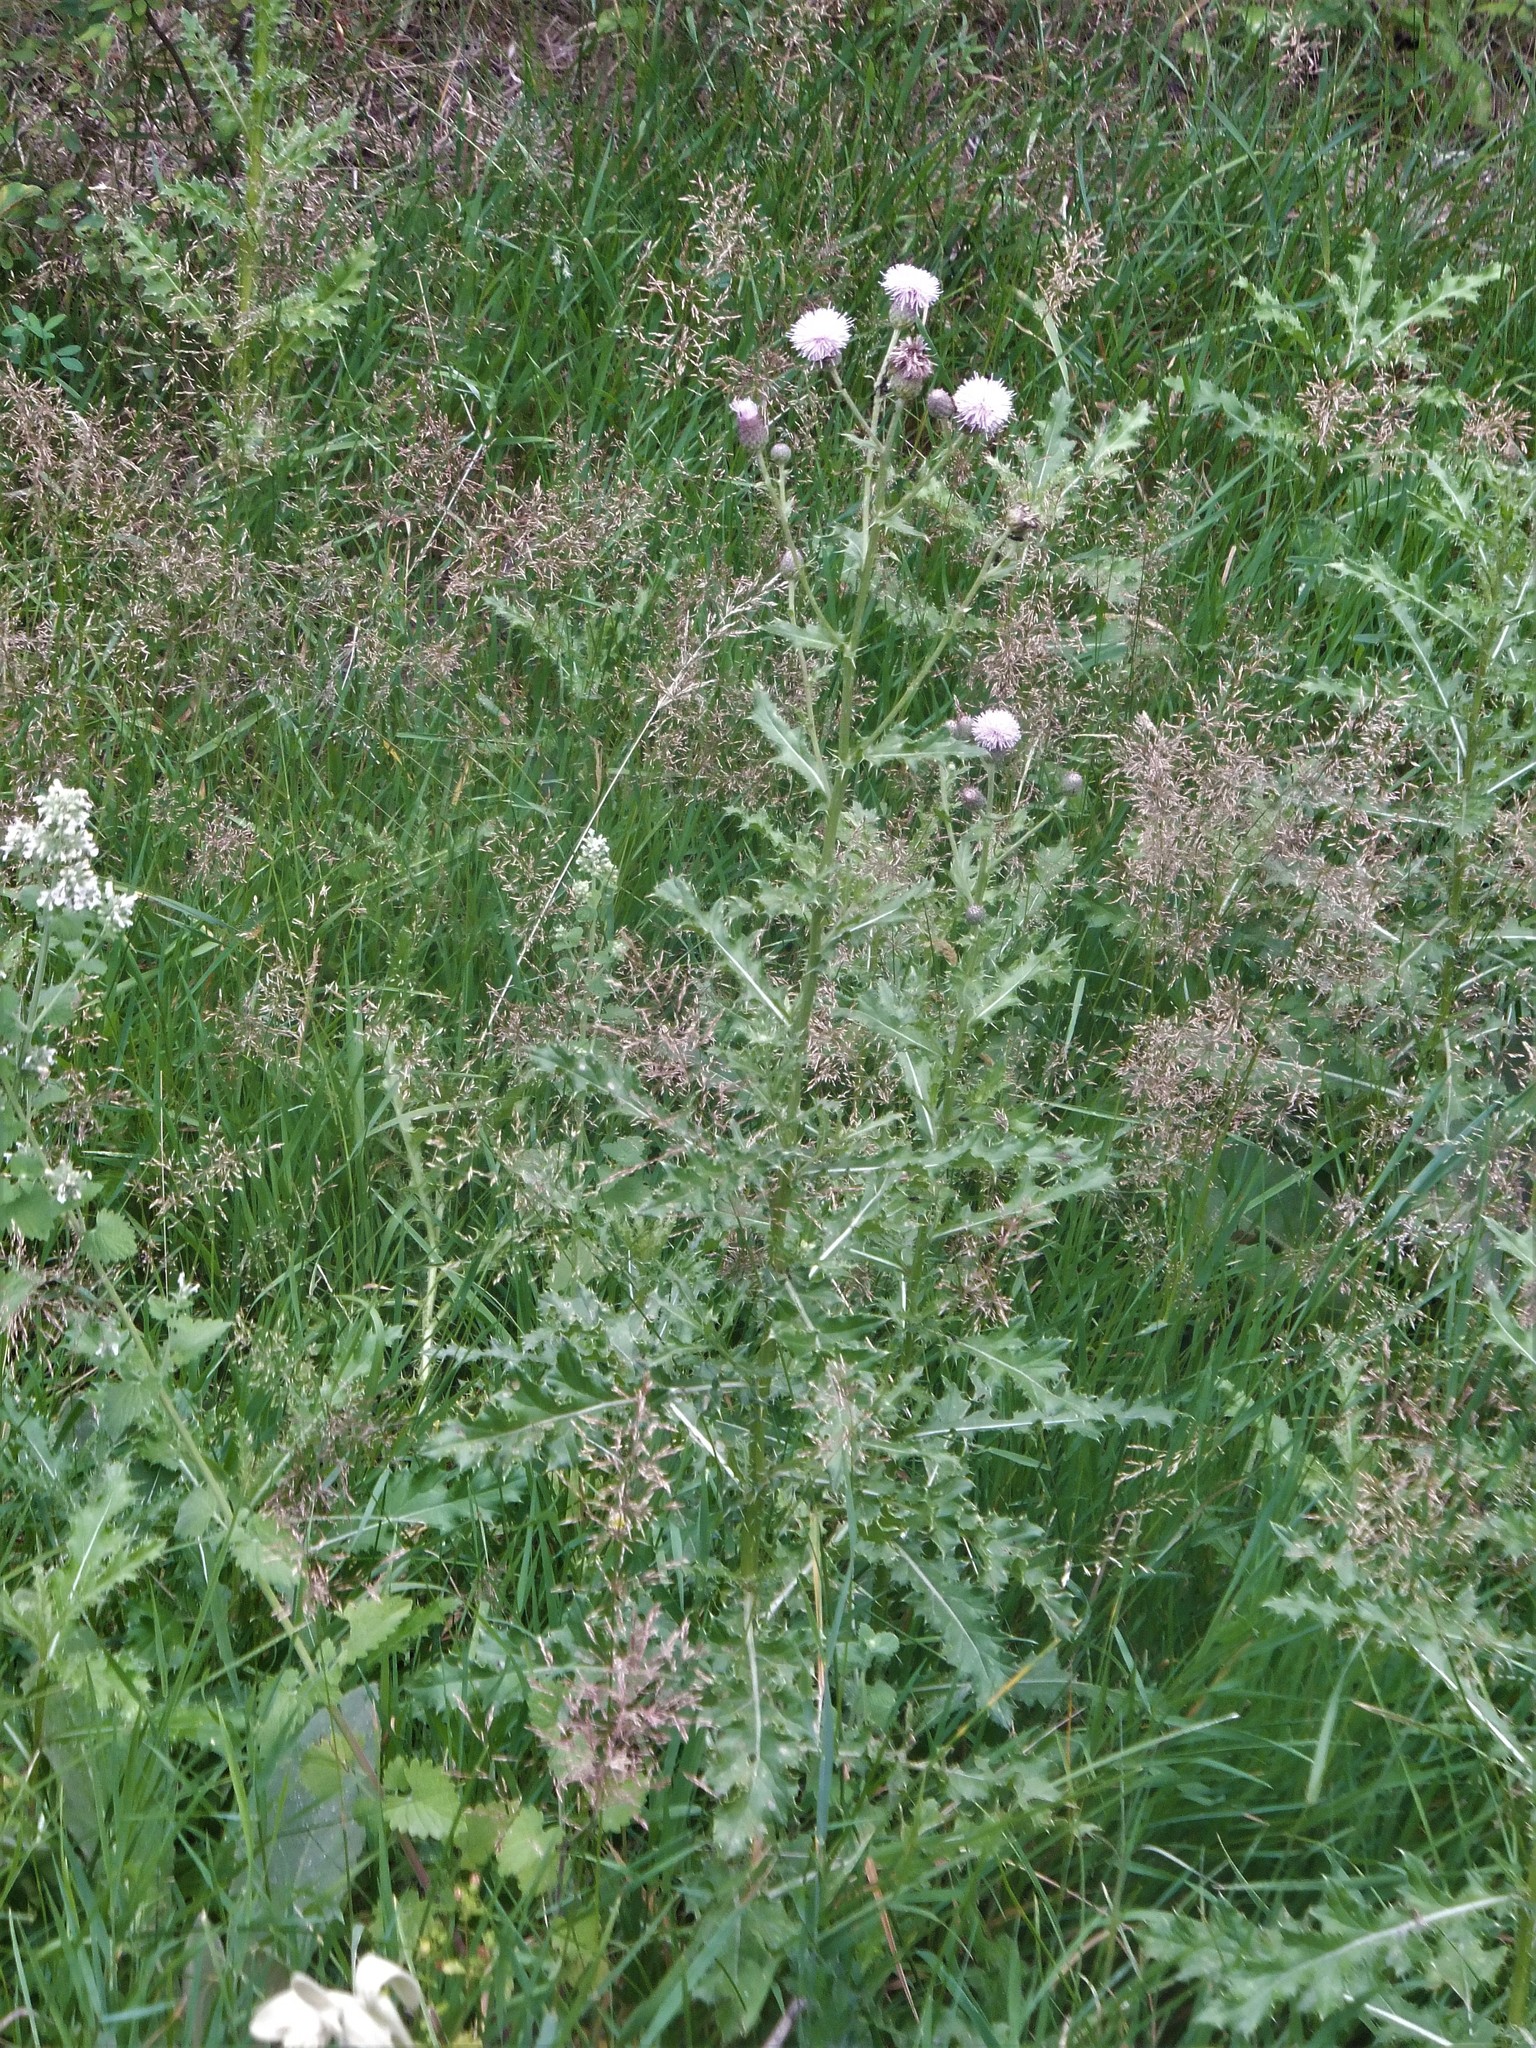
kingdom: Plantae
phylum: Tracheophyta
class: Magnoliopsida
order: Asterales
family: Asteraceae
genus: Cirsium
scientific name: Cirsium arvense
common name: Creeping thistle
